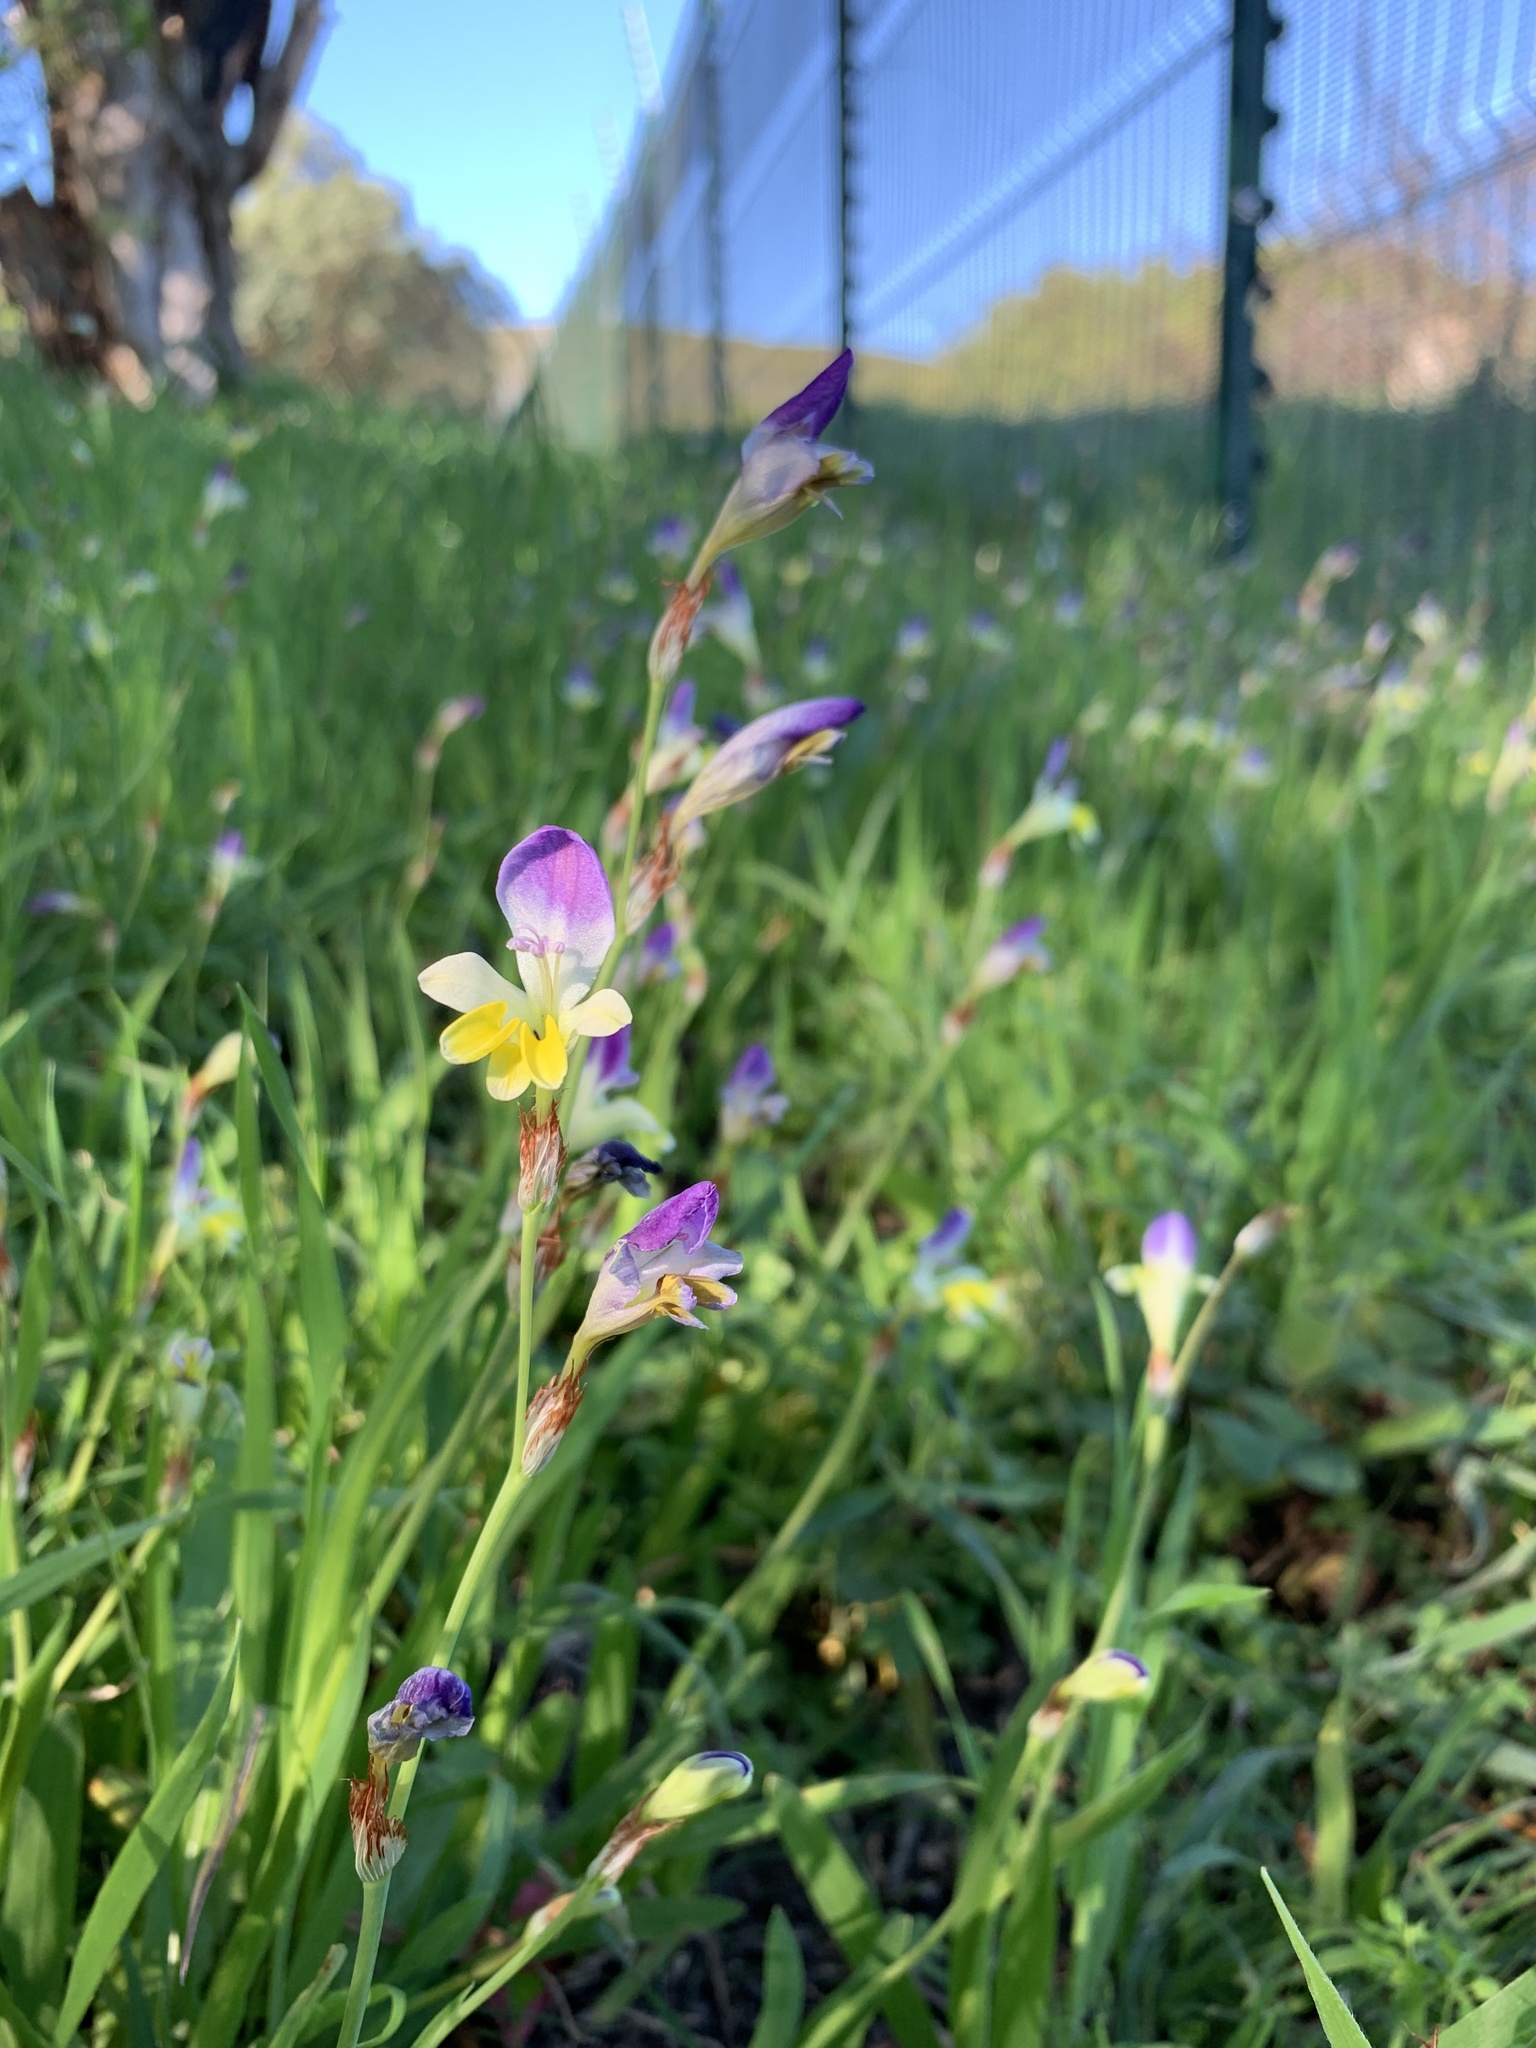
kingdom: Plantae
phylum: Tracheophyta
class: Liliopsida
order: Asparagales
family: Iridaceae
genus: Sparaxis
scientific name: Sparaxis villosa
